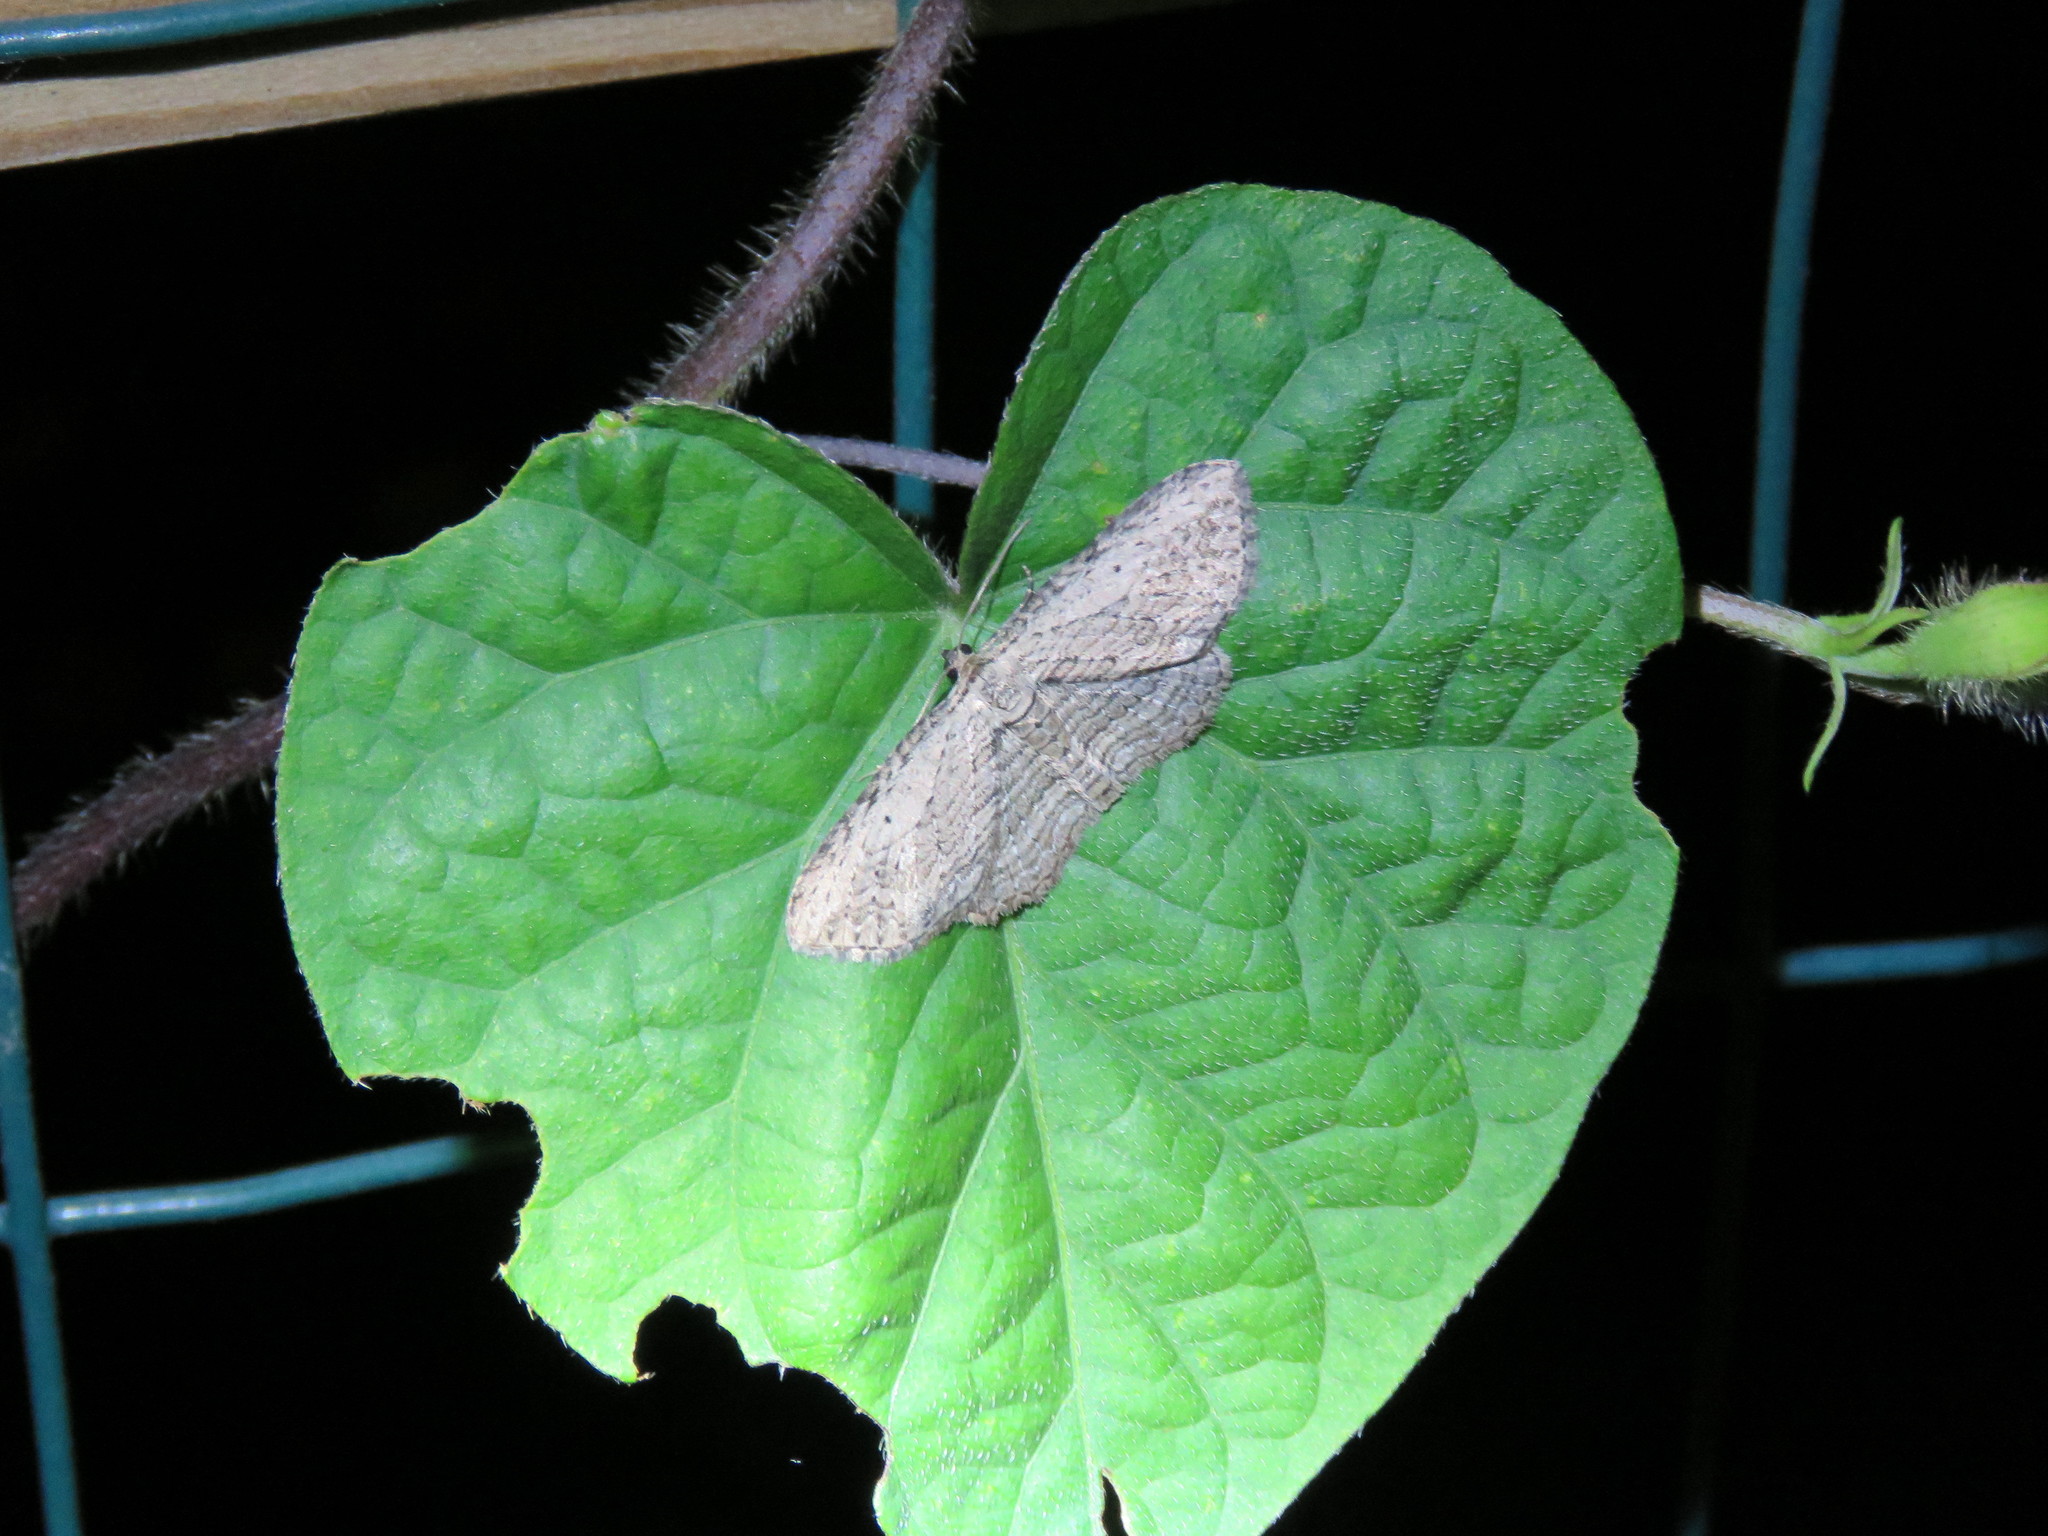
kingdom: Animalia
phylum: Arthropoda
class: Insecta
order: Lepidoptera
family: Geometridae
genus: Horisme
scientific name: Horisme intestinata
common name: Brown bark carpet
